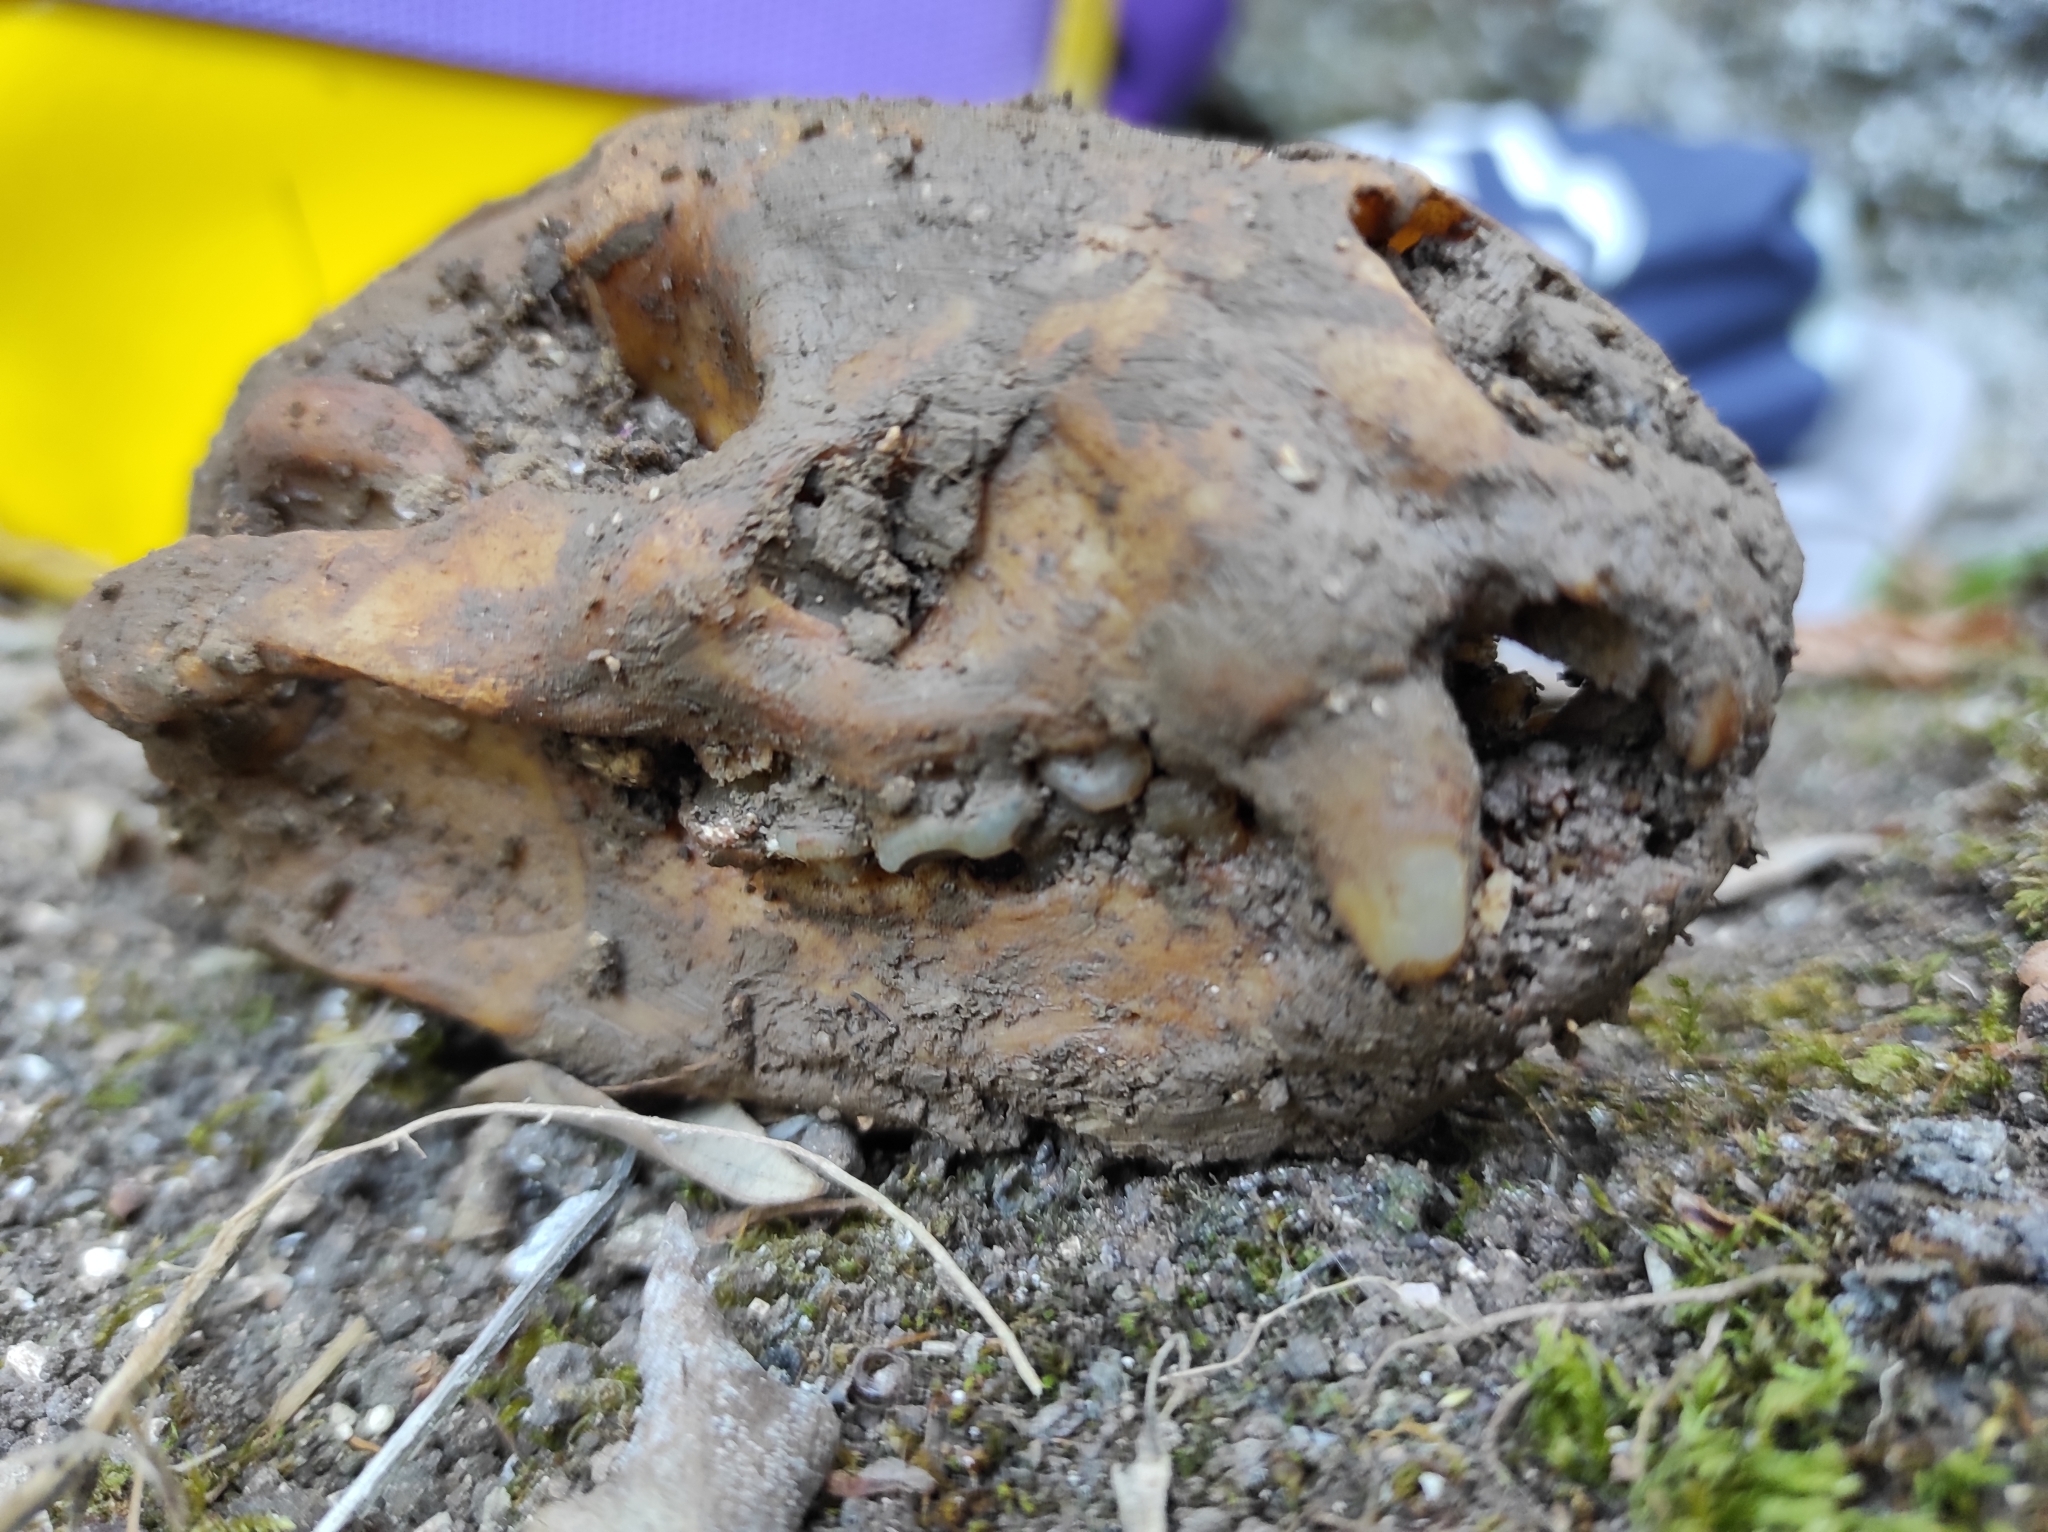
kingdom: Animalia
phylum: Chordata
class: Mammalia
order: Carnivora
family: Mustelidae
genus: Meles
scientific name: Meles meles
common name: Eurasian badger
